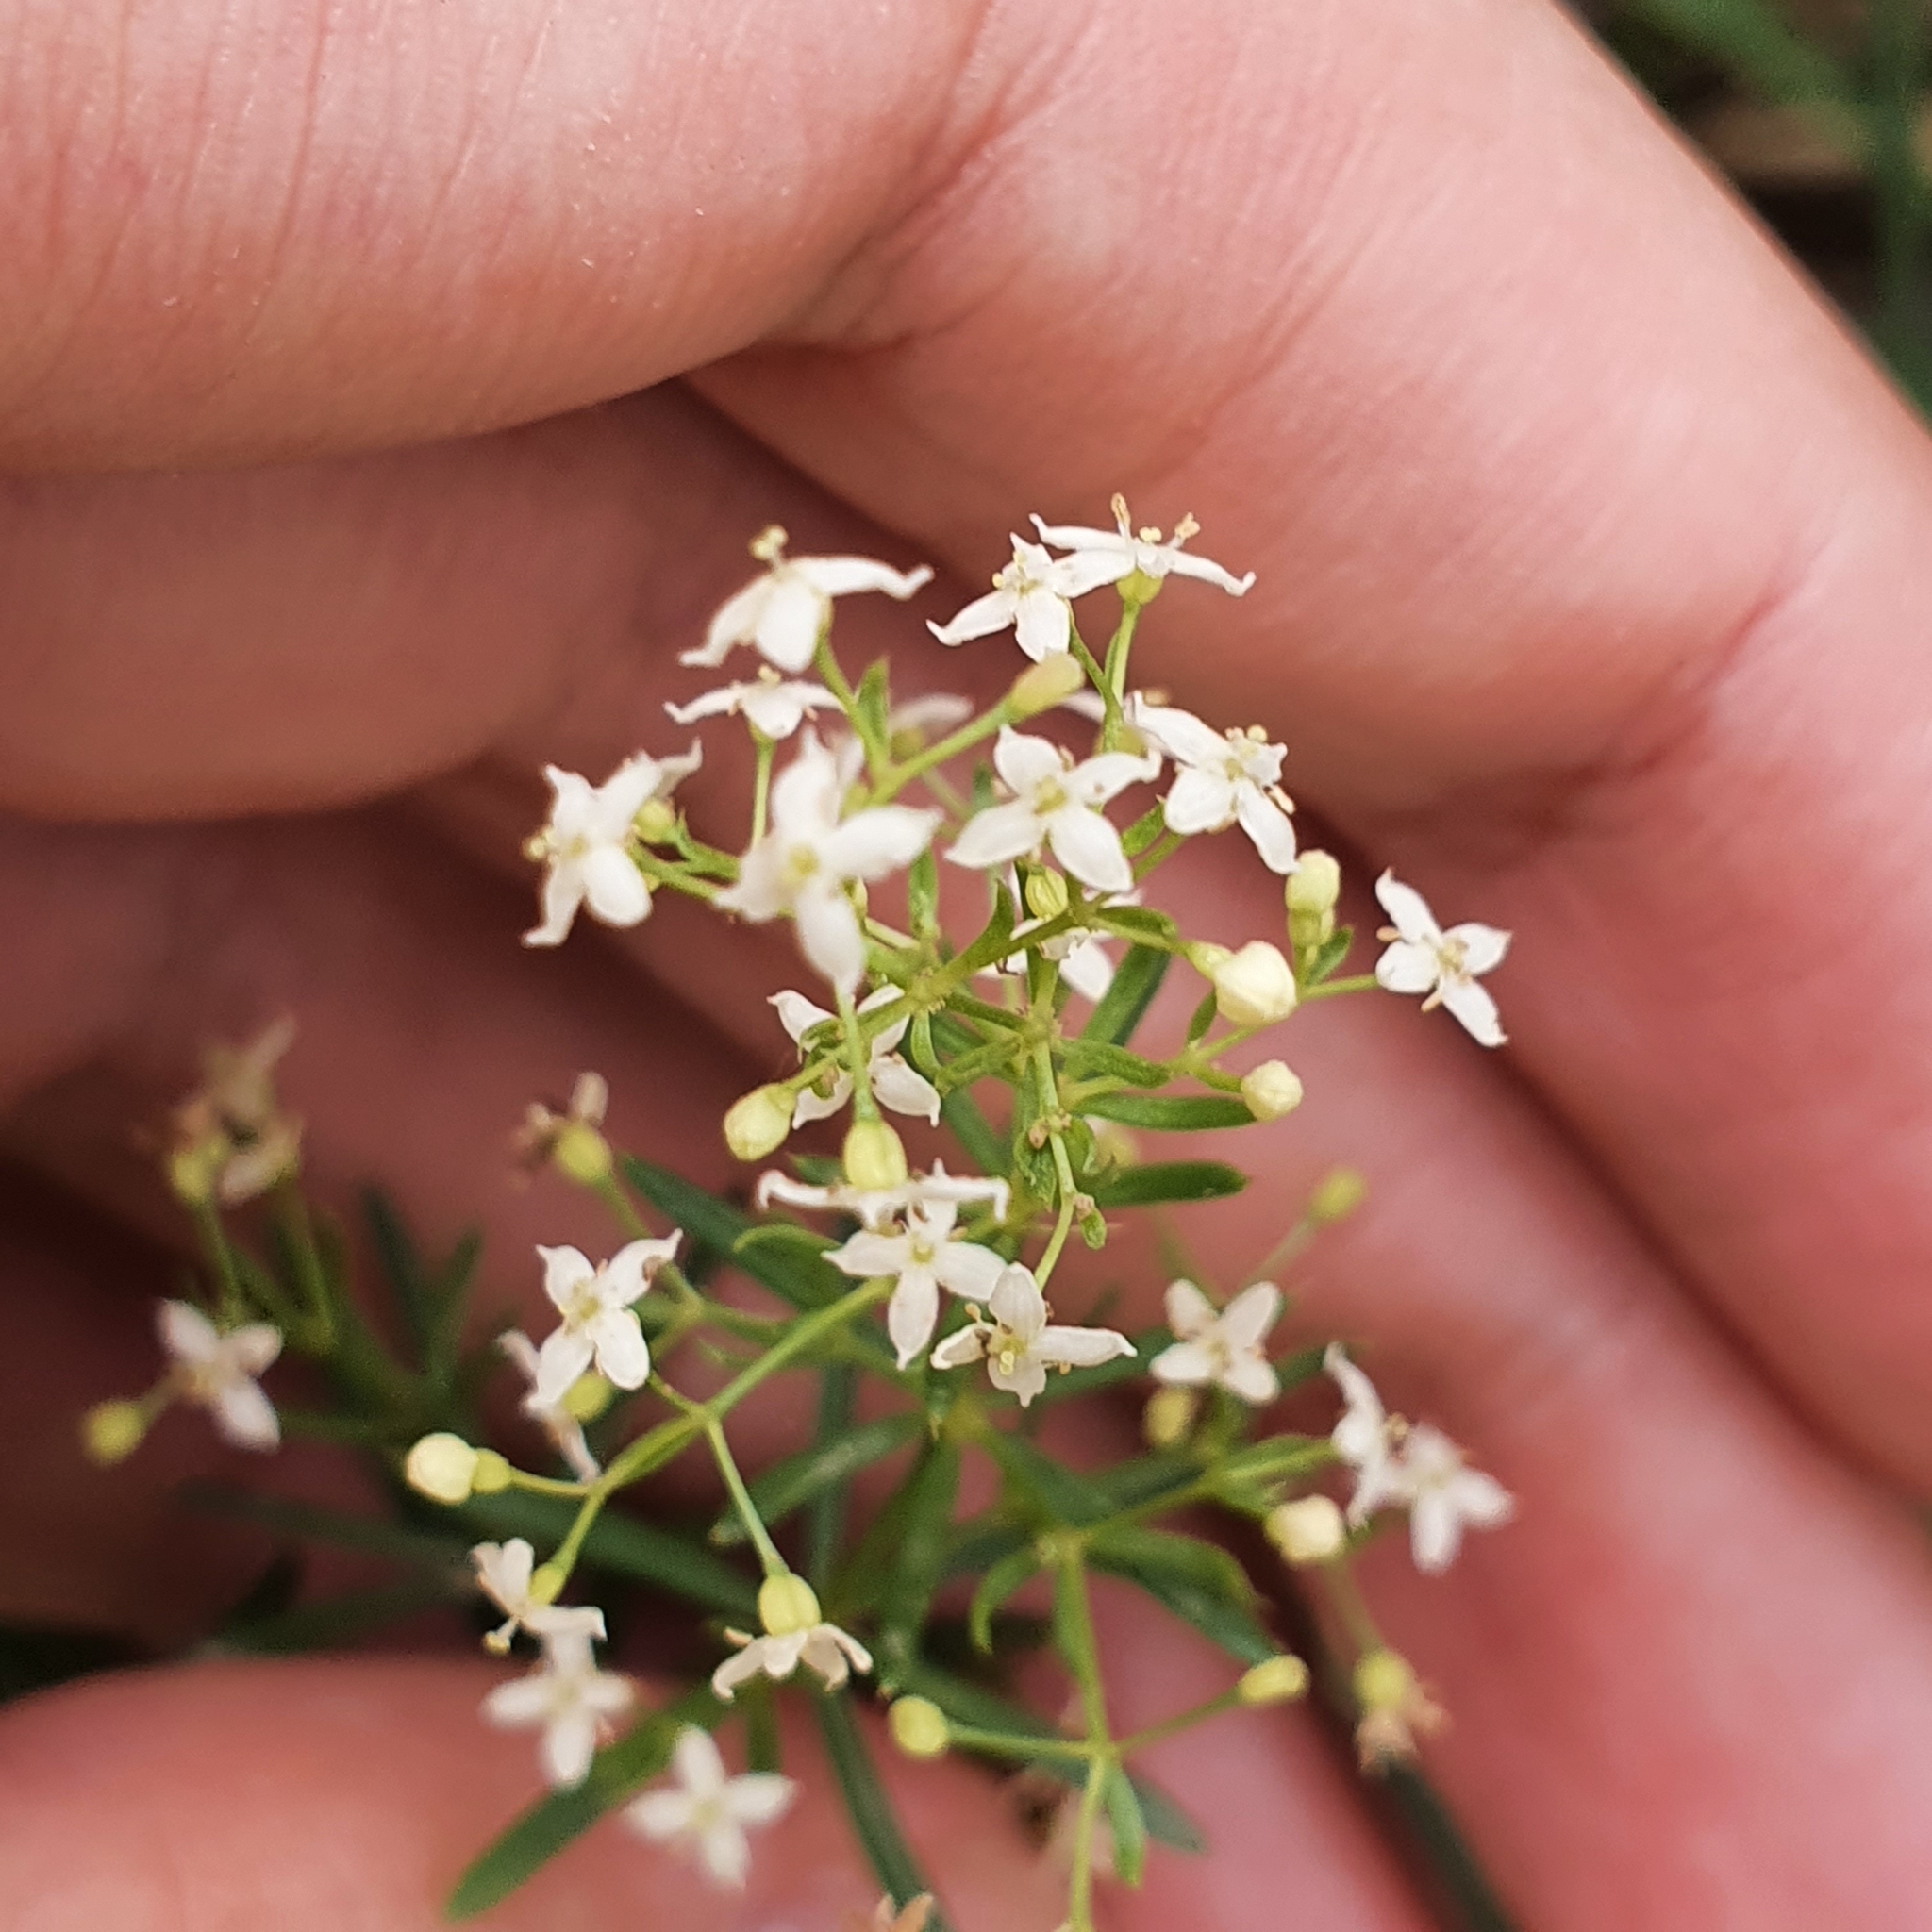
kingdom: Plantae
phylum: Tracheophyta
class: Magnoliopsida
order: Gentianales
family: Rubiaceae
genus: Galium
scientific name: Galium lucidum
